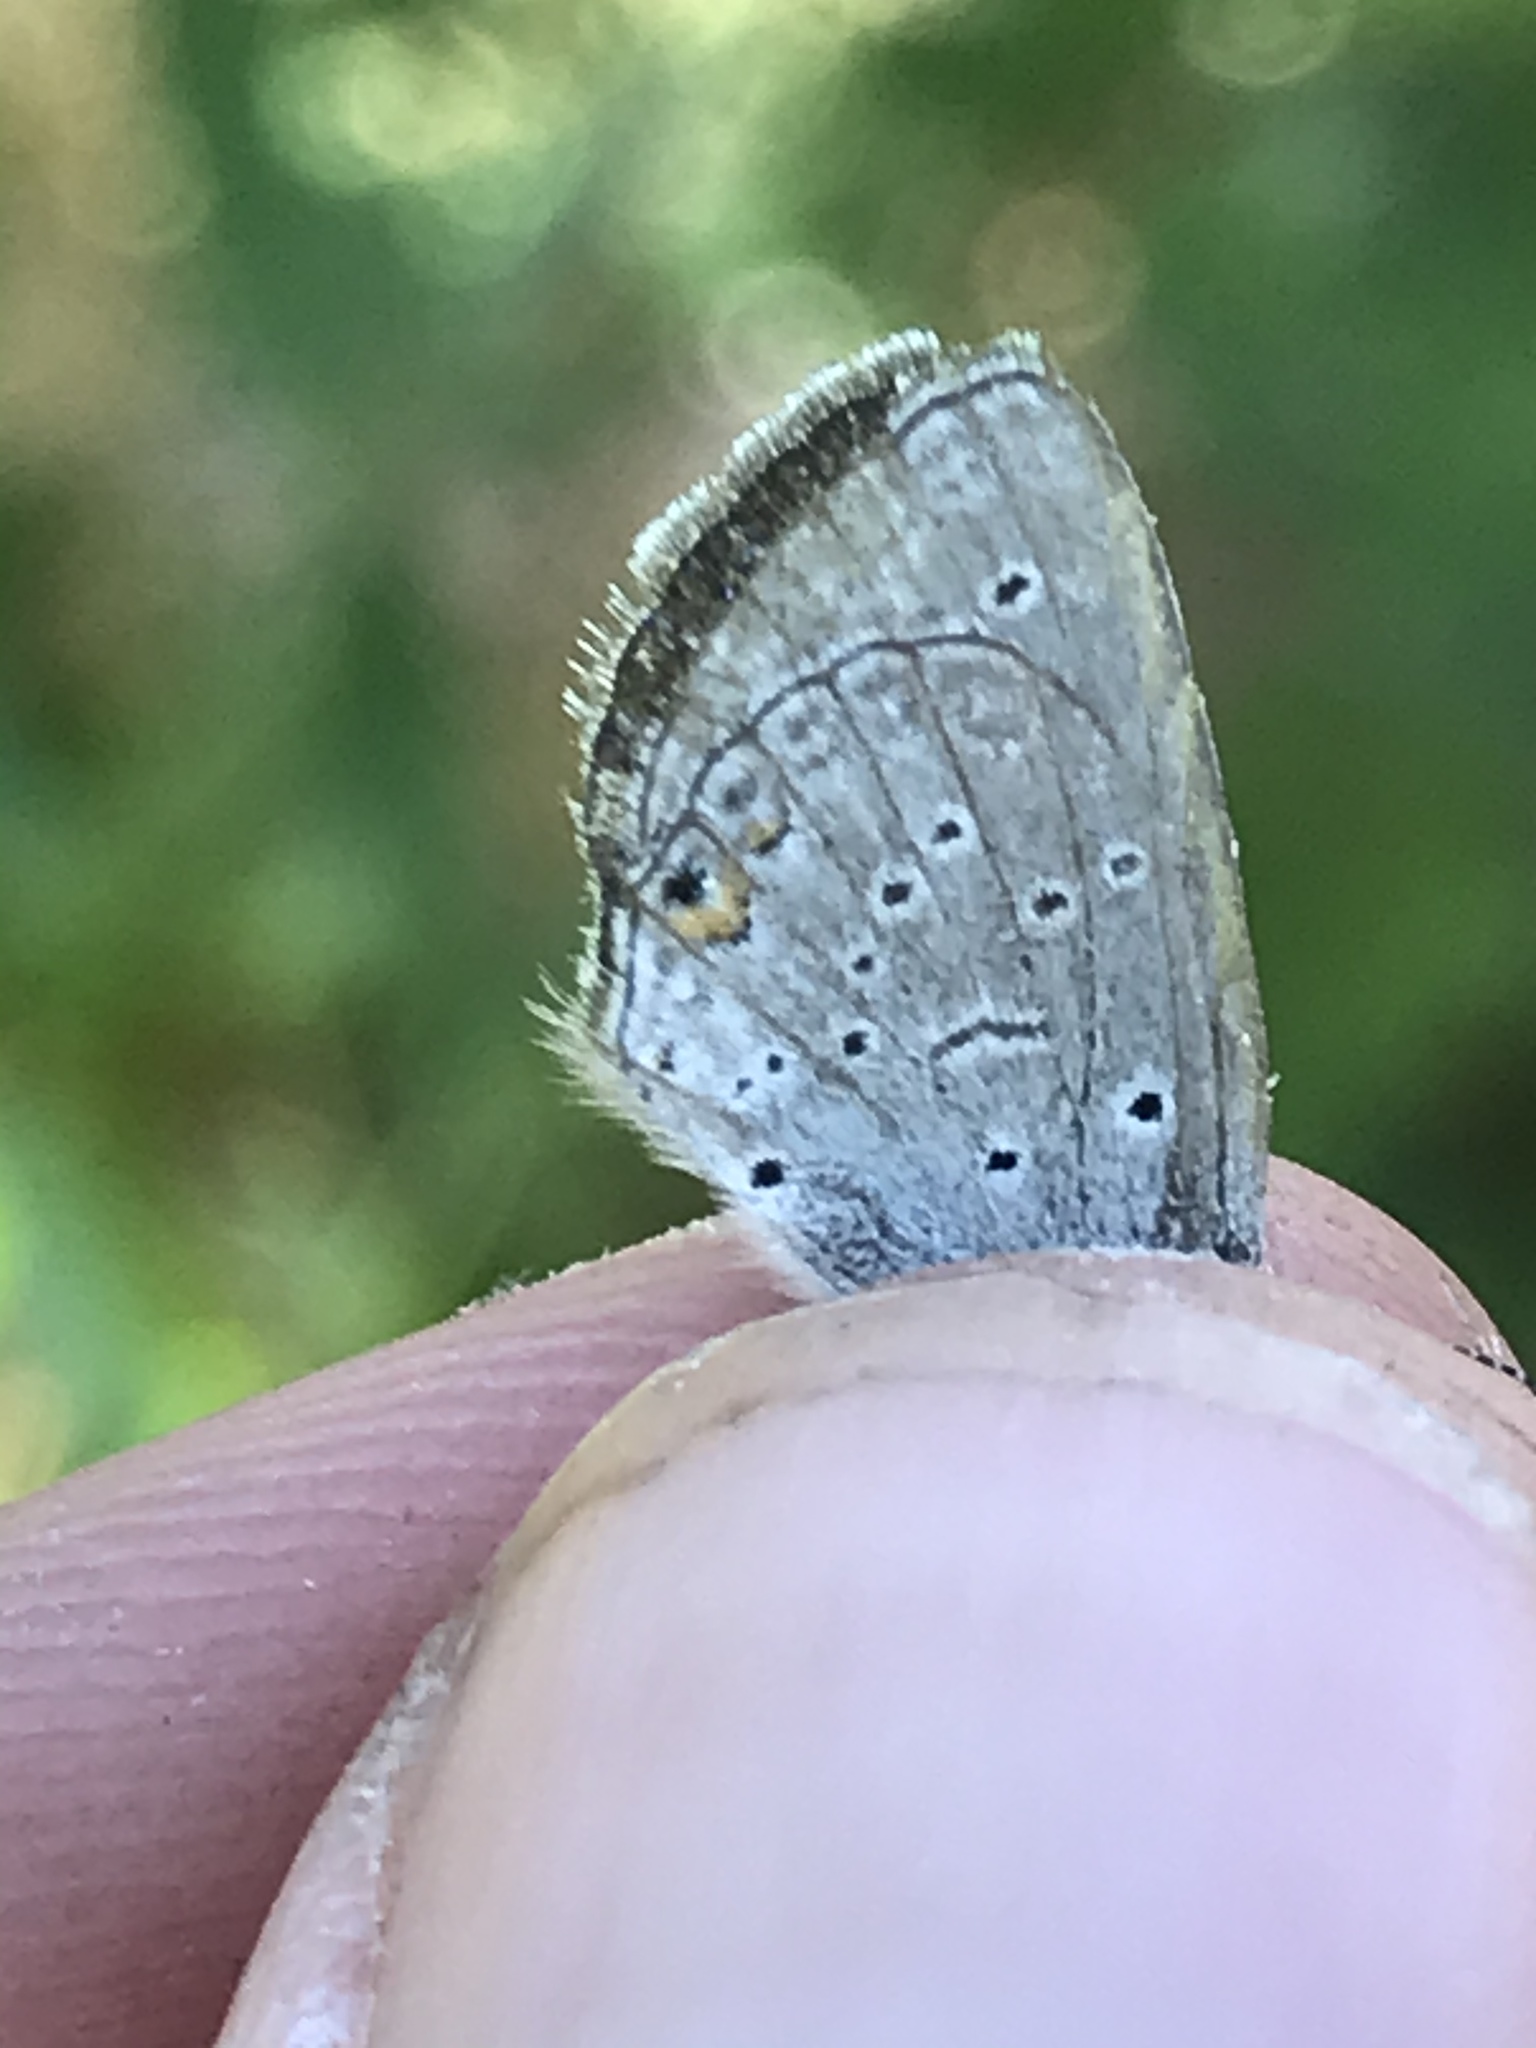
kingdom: Animalia
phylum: Arthropoda
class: Insecta
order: Lepidoptera
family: Lycaenidae
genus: Elkalyce
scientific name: Elkalyce amyntula
